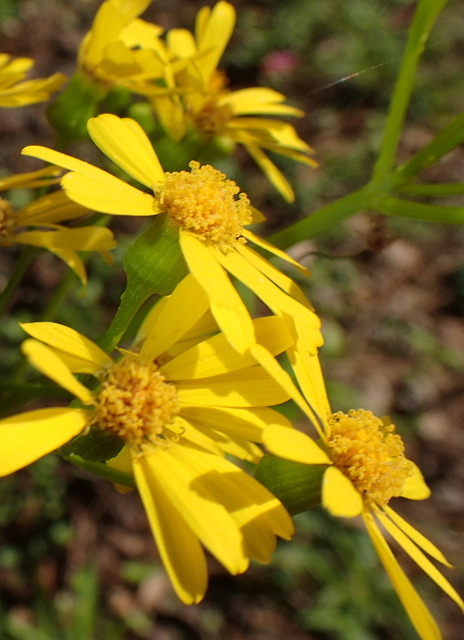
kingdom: Plantae
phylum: Tracheophyta
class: Magnoliopsida
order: Asterales
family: Asteraceae
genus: Packera
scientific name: Packera glabella
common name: Butterweed
